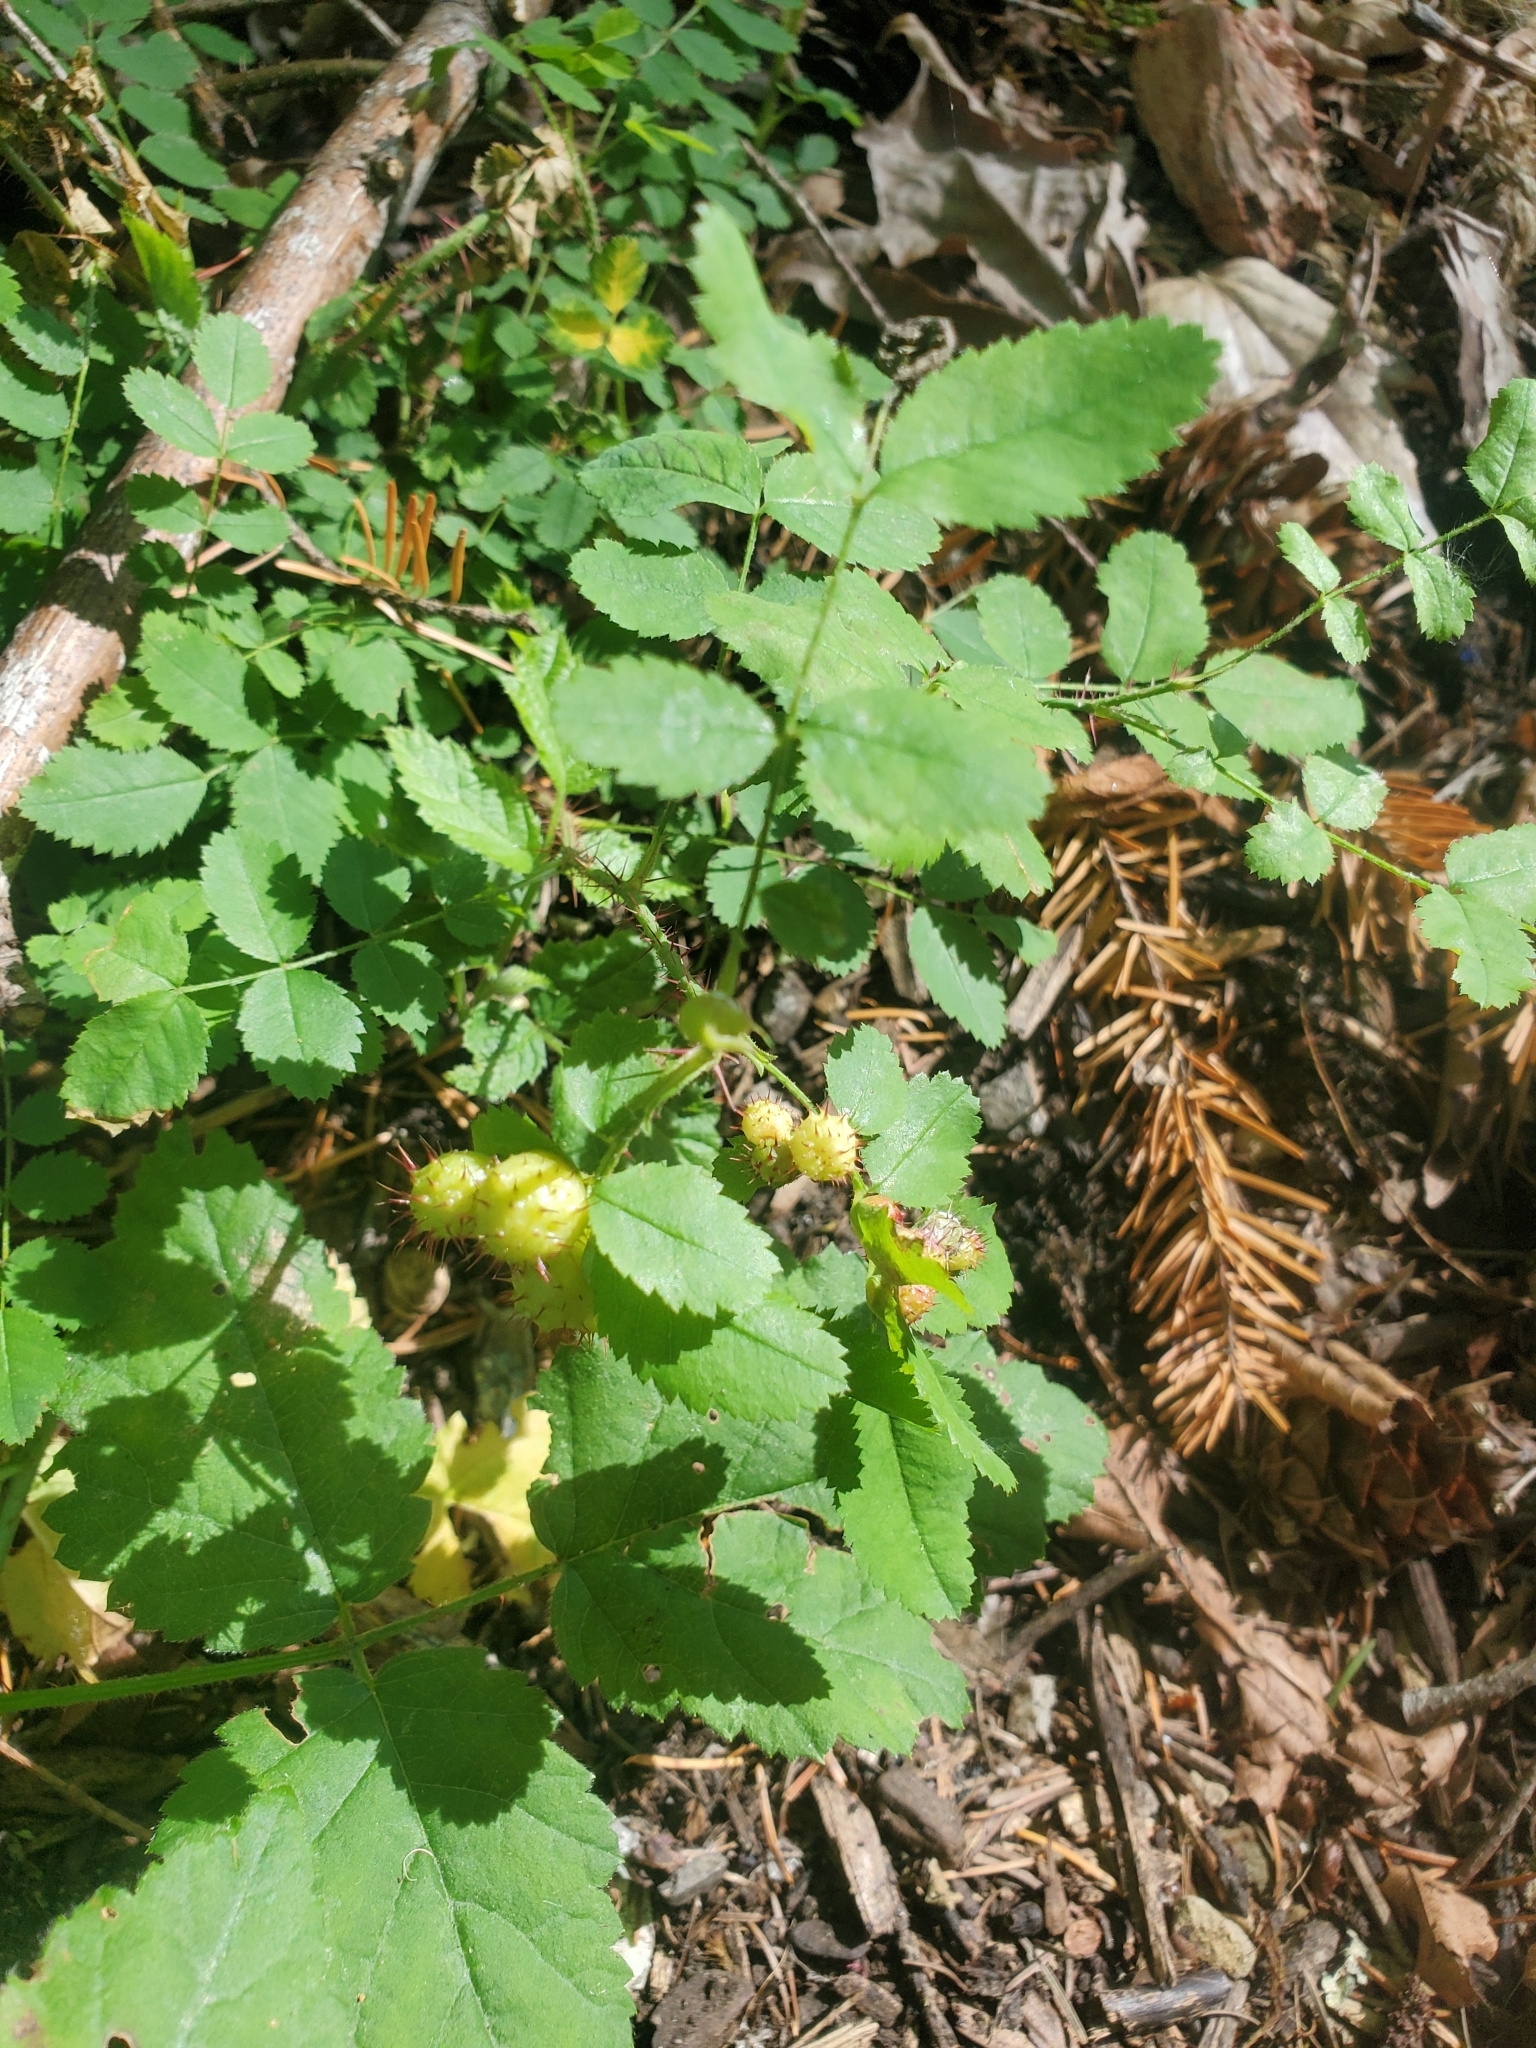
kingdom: Plantae
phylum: Tracheophyta
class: Magnoliopsida
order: Rosales
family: Rosaceae
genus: Rosa
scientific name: Rosa gymnocarpa
